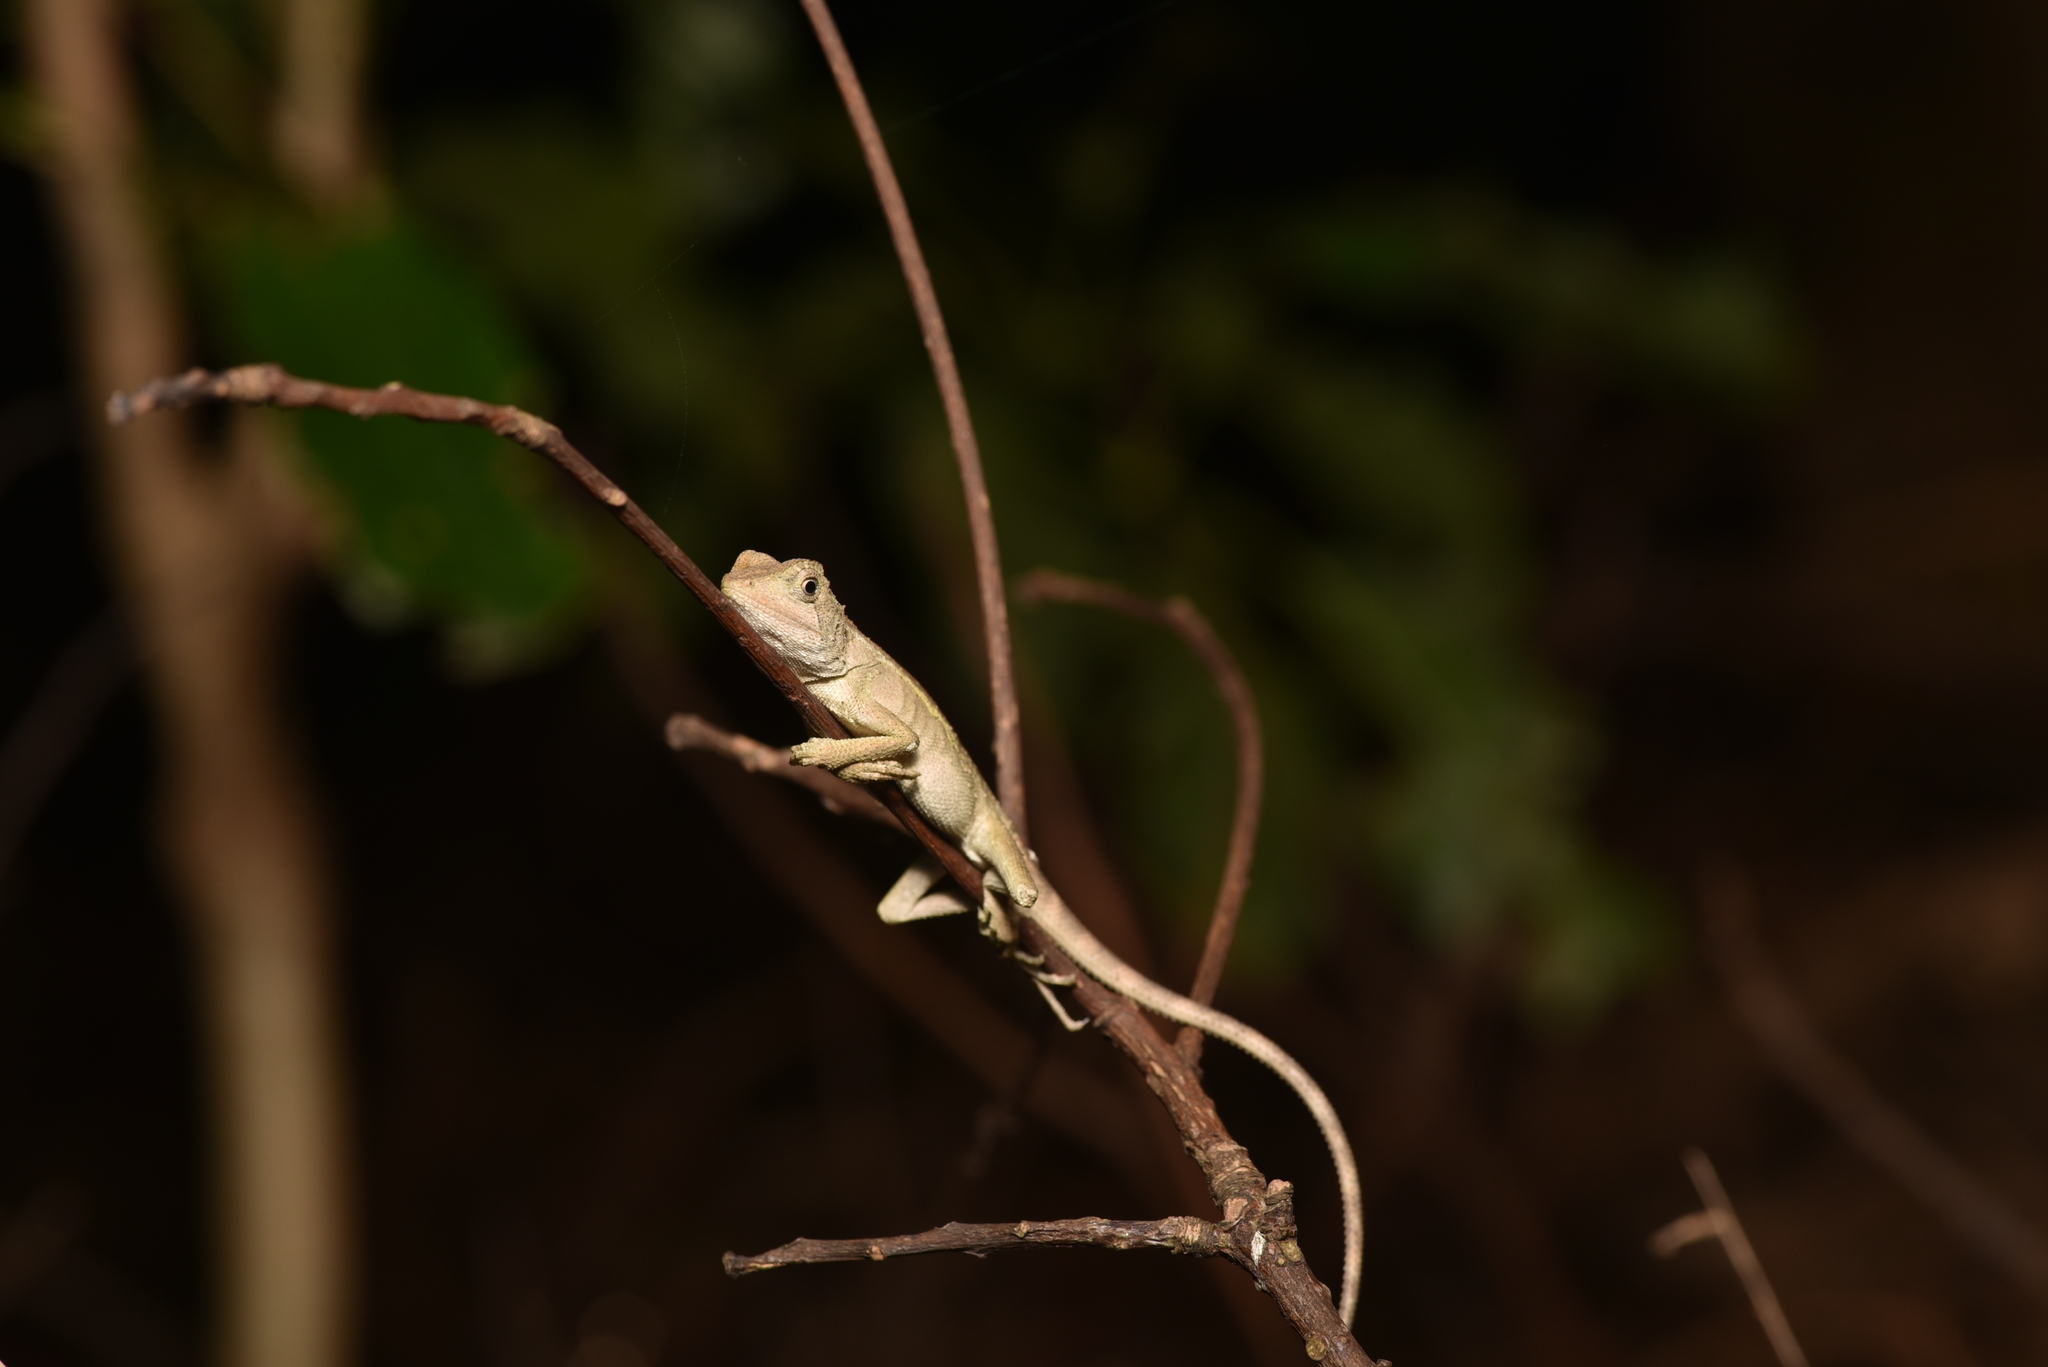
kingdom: Animalia
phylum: Chordata
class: Squamata
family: Agamidae
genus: Diploderma
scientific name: Diploderma swinhonis
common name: Taiwan japalure
